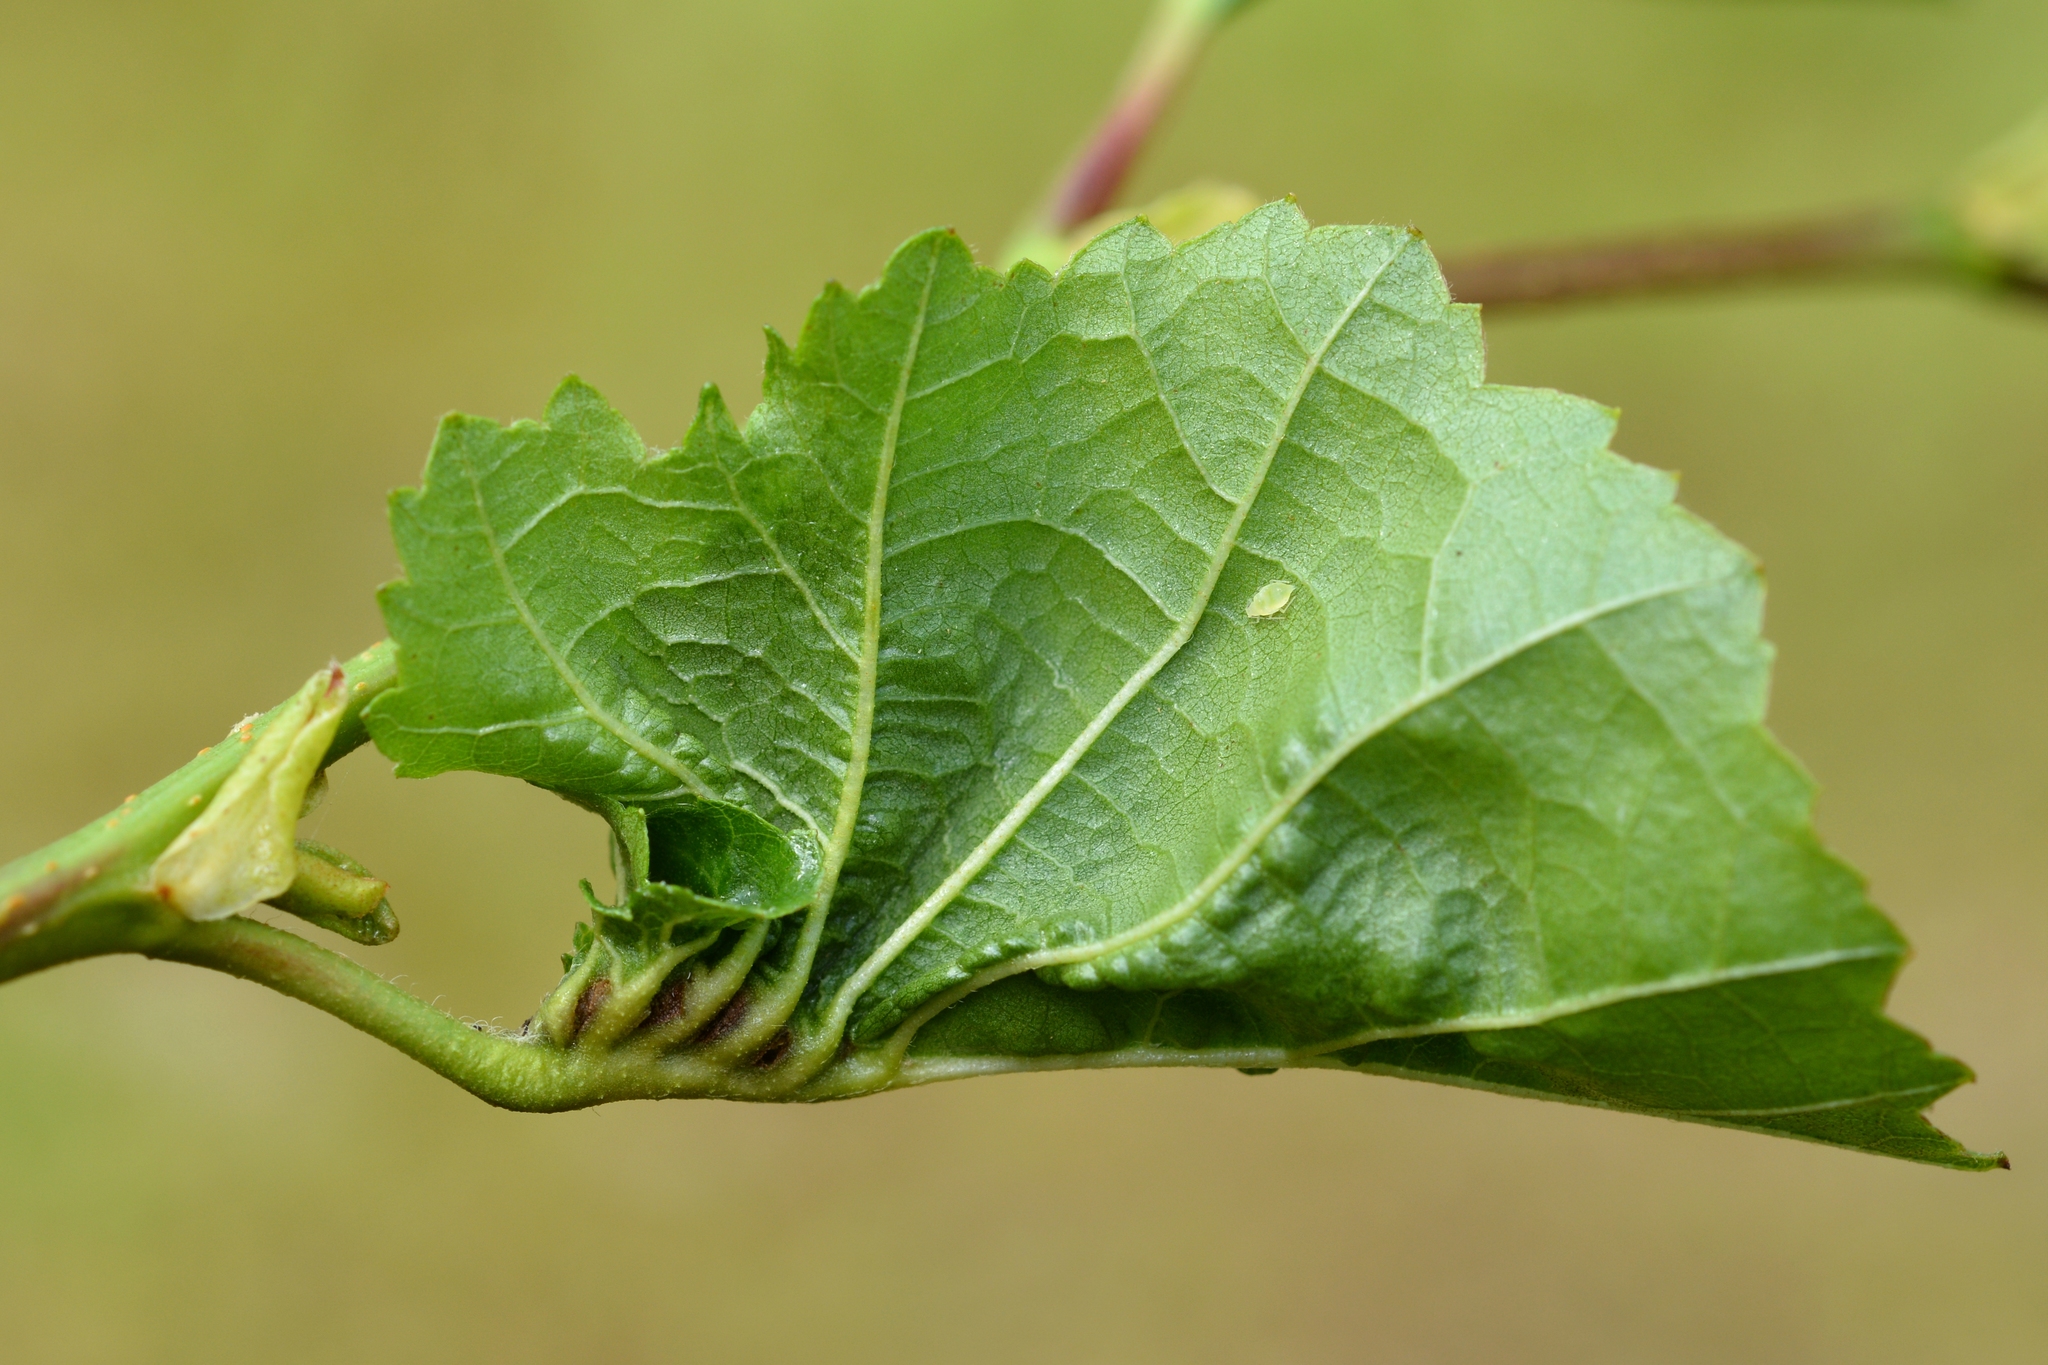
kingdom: Animalia
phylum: Arthropoda
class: Insecta
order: Diptera
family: Cecidomyiidae
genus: Dasineura
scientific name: Dasineura tortilis
